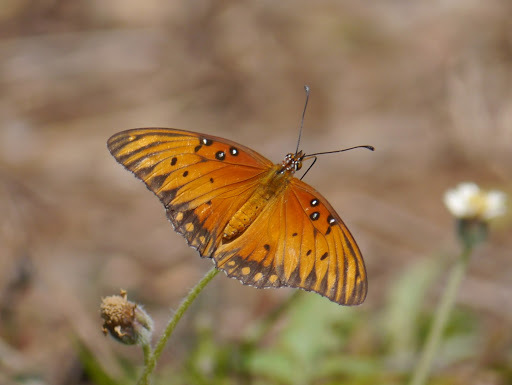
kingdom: Animalia
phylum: Arthropoda
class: Insecta
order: Lepidoptera
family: Nymphalidae
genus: Dione
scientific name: Dione vanillae
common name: Gulf fritillary
